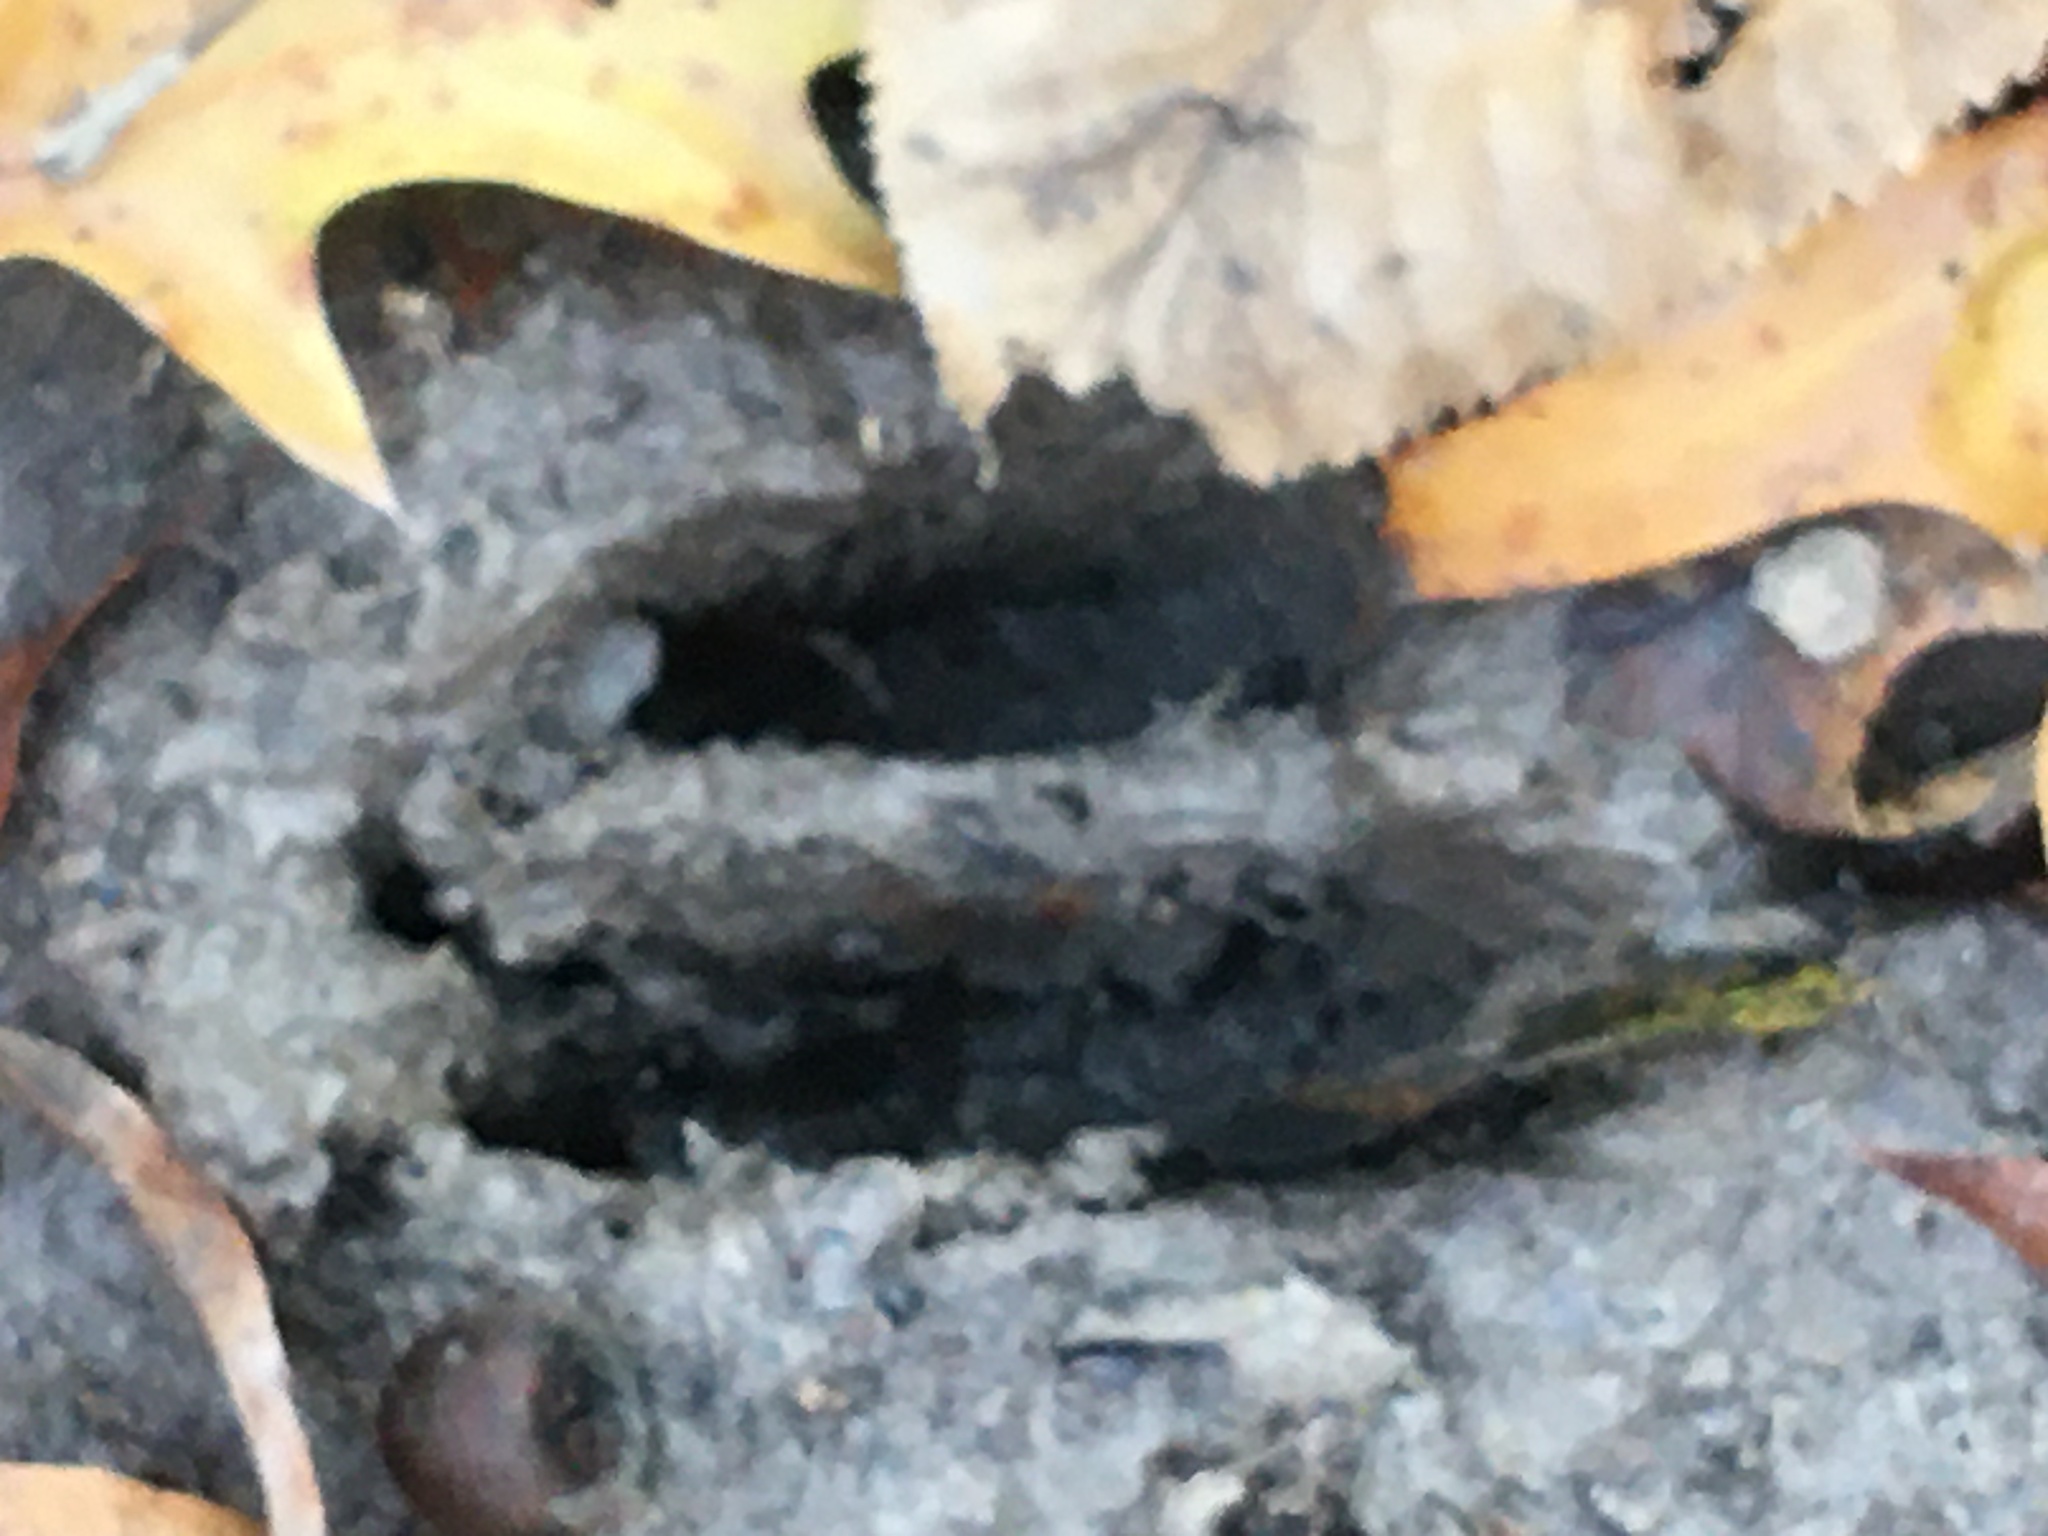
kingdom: Animalia
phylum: Chordata
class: Mammalia
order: Artiodactyla
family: Cervidae
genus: Odocoileus
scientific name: Odocoileus virginianus
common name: White-tailed deer
